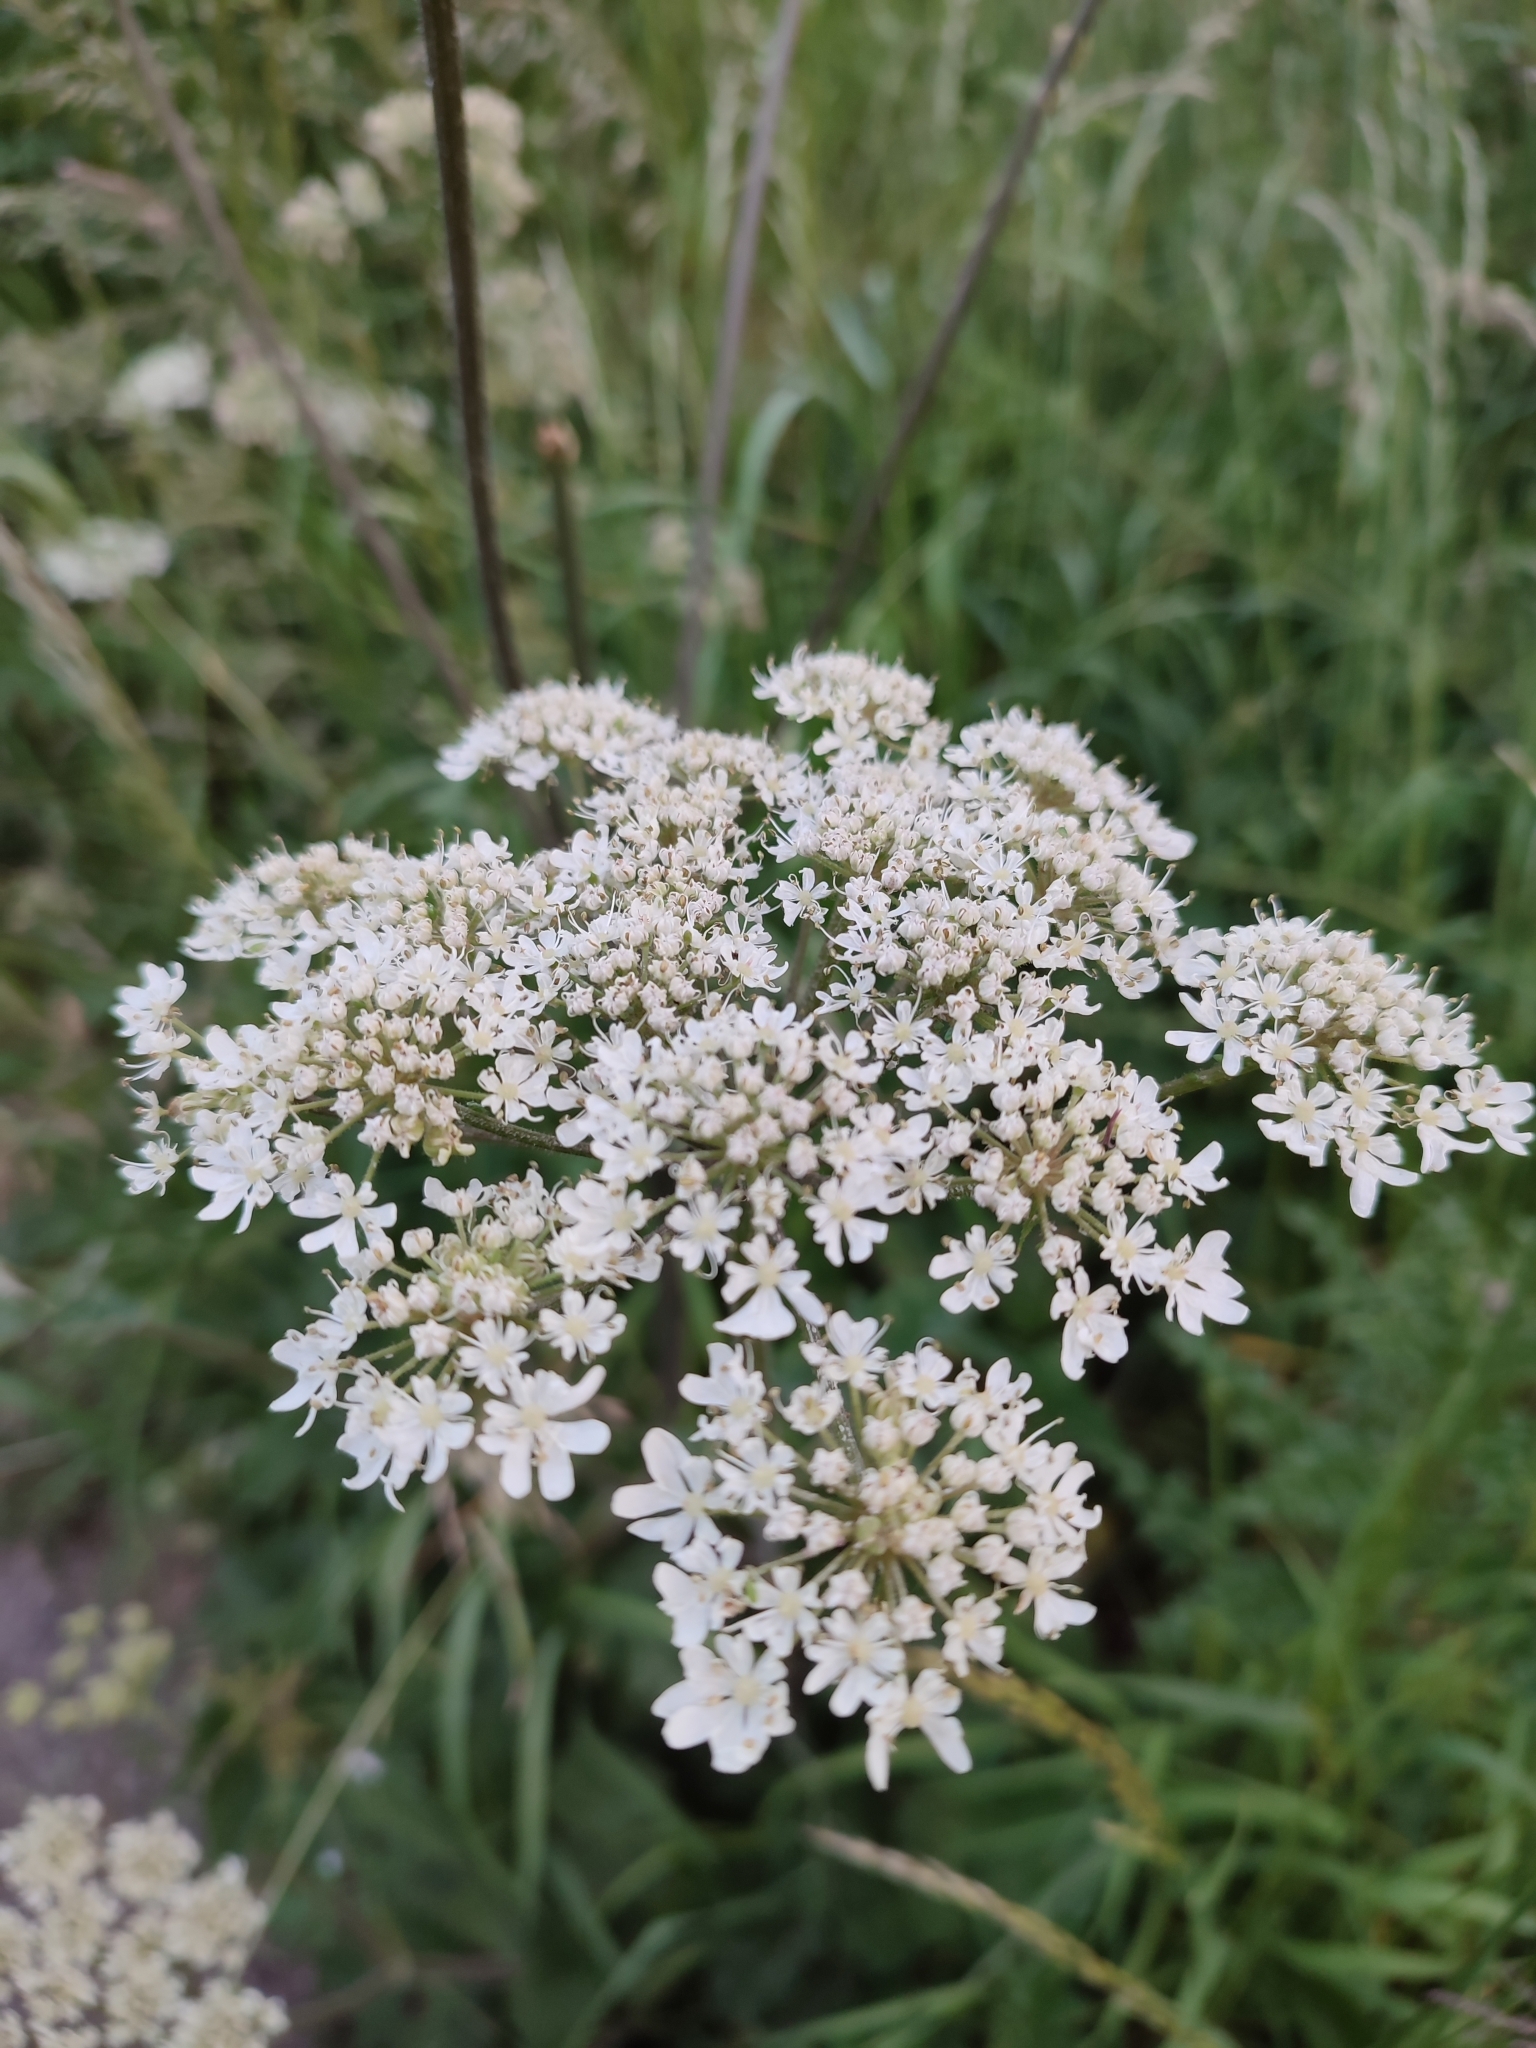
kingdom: Plantae
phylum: Tracheophyta
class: Magnoliopsida
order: Apiales
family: Apiaceae
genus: Heracleum
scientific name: Heracleum sphondylium
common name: Hogweed
